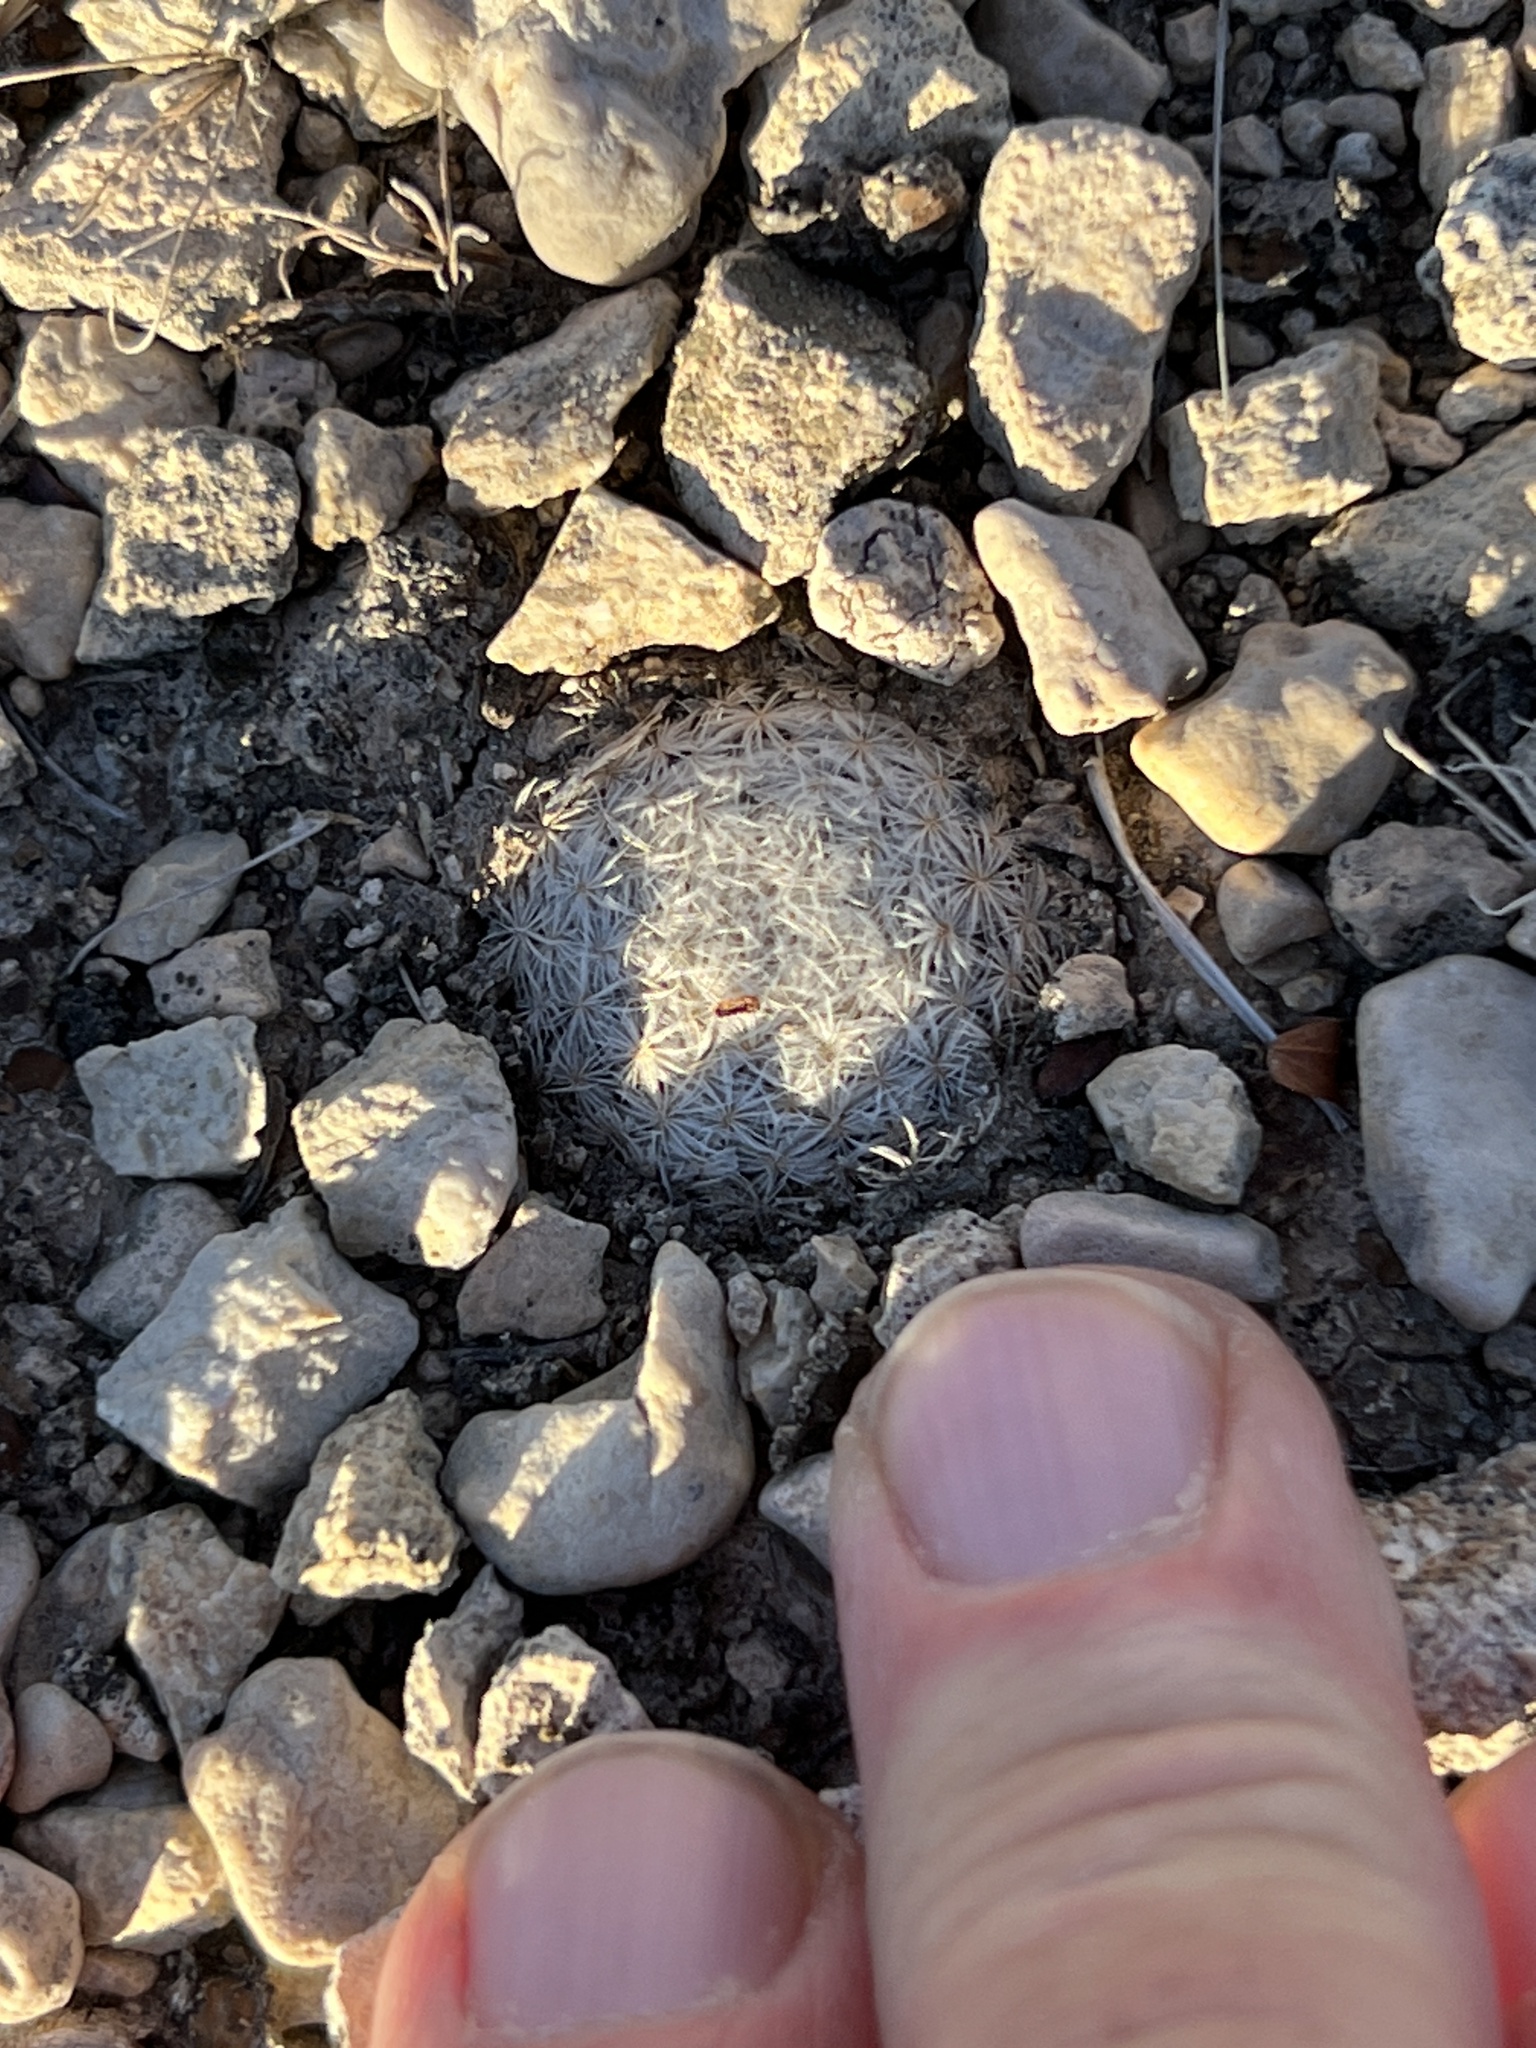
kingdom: Plantae
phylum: Tracheophyta
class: Magnoliopsida
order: Caryophyllales
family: Cactaceae
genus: Mammillaria
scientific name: Mammillaria lasiacantha
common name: Lace-spine nipple cactus
